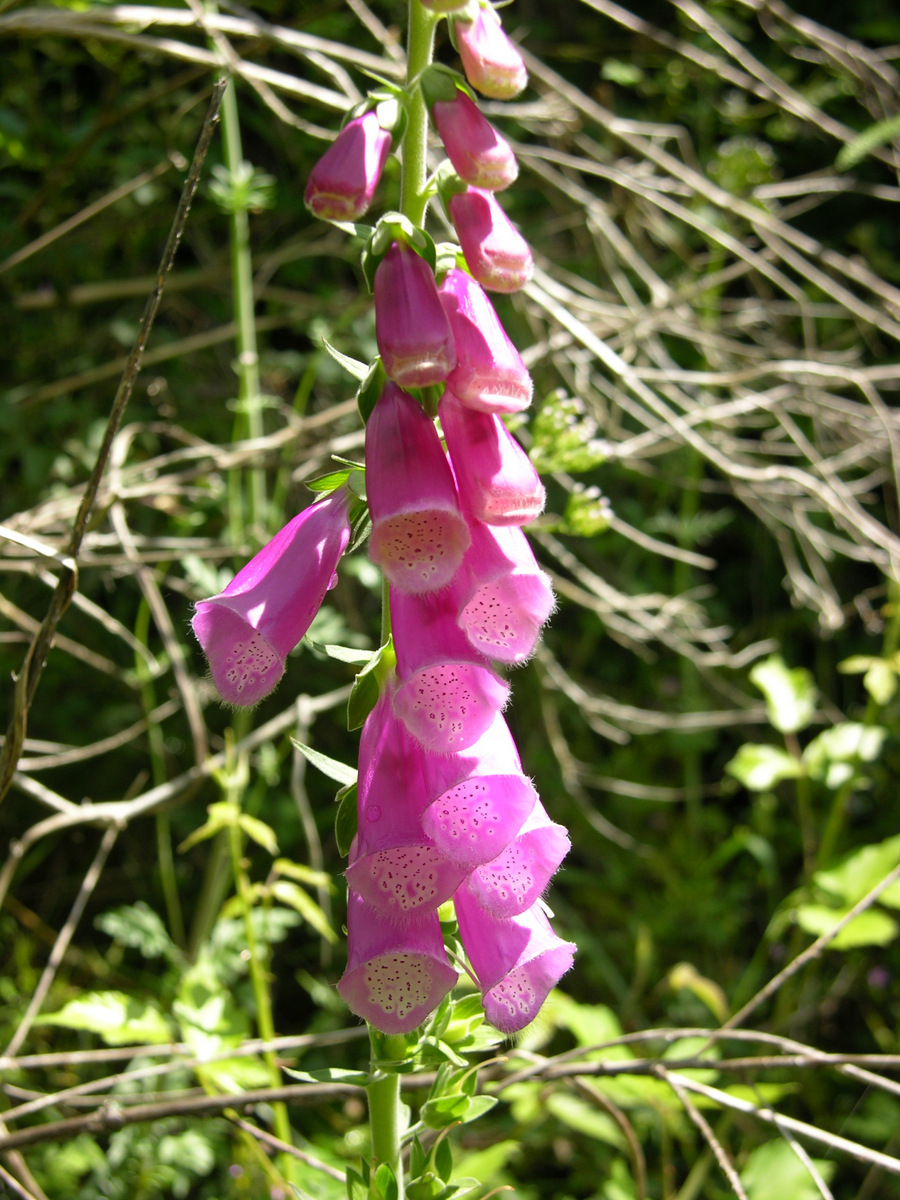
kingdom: Plantae
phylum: Tracheophyta
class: Magnoliopsida
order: Lamiales
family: Plantaginaceae
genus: Digitalis
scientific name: Digitalis purpurea
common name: Foxglove
